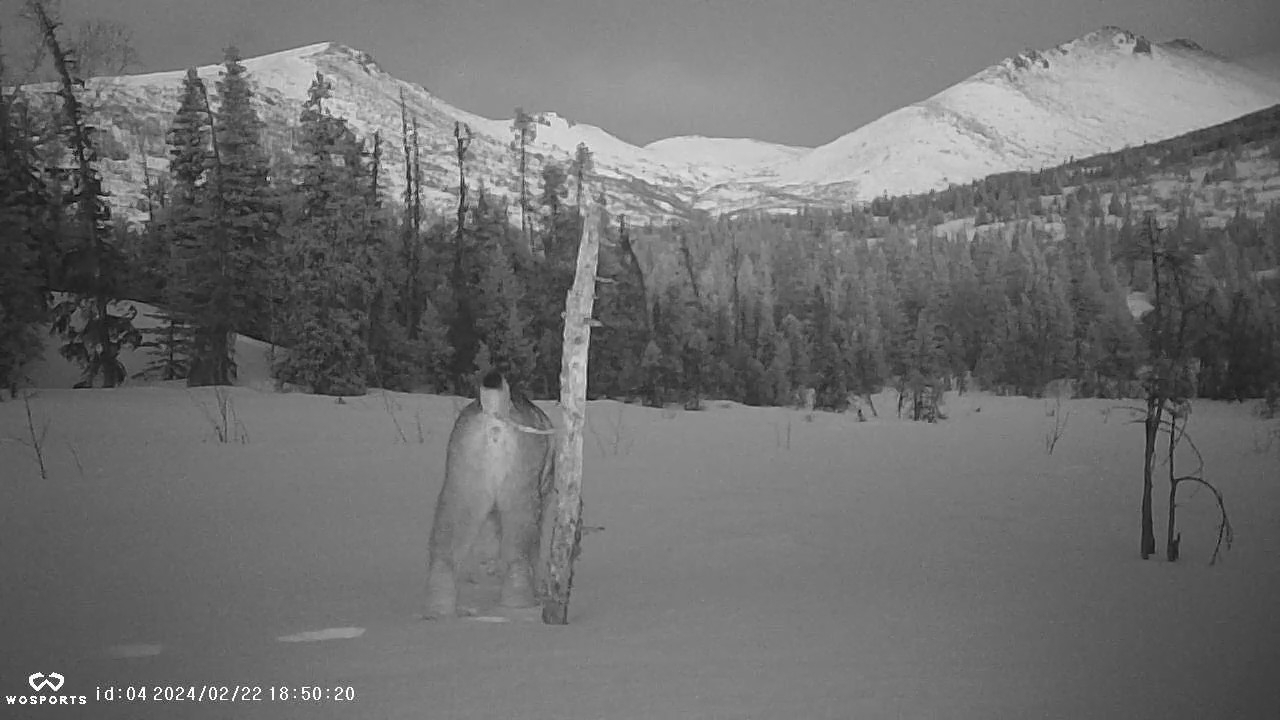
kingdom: Animalia
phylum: Chordata
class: Mammalia
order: Carnivora
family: Felidae
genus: Lynx
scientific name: Lynx canadensis
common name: Canadian lynx
